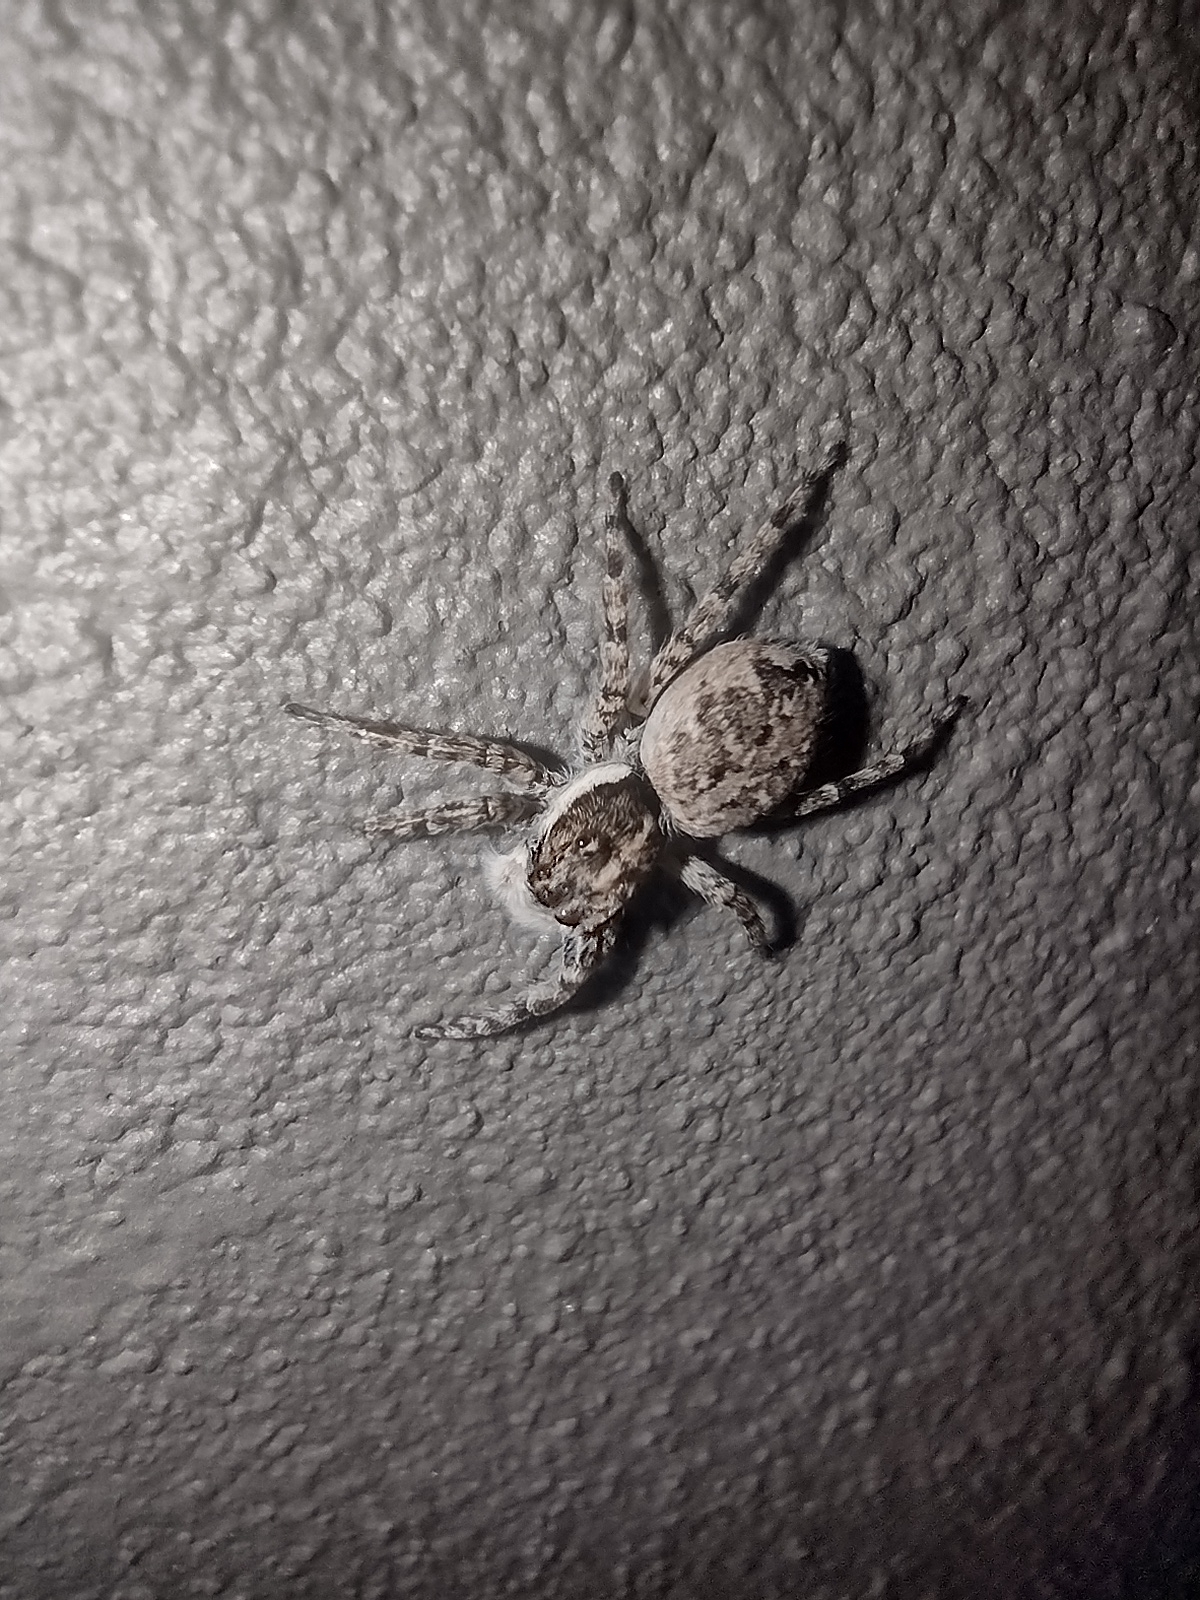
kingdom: Animalia
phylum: Arthropoda
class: Arachnida
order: Araneae
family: Salticidae
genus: Menemerus
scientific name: Menemerus semilimbatus
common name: Jumping spider
